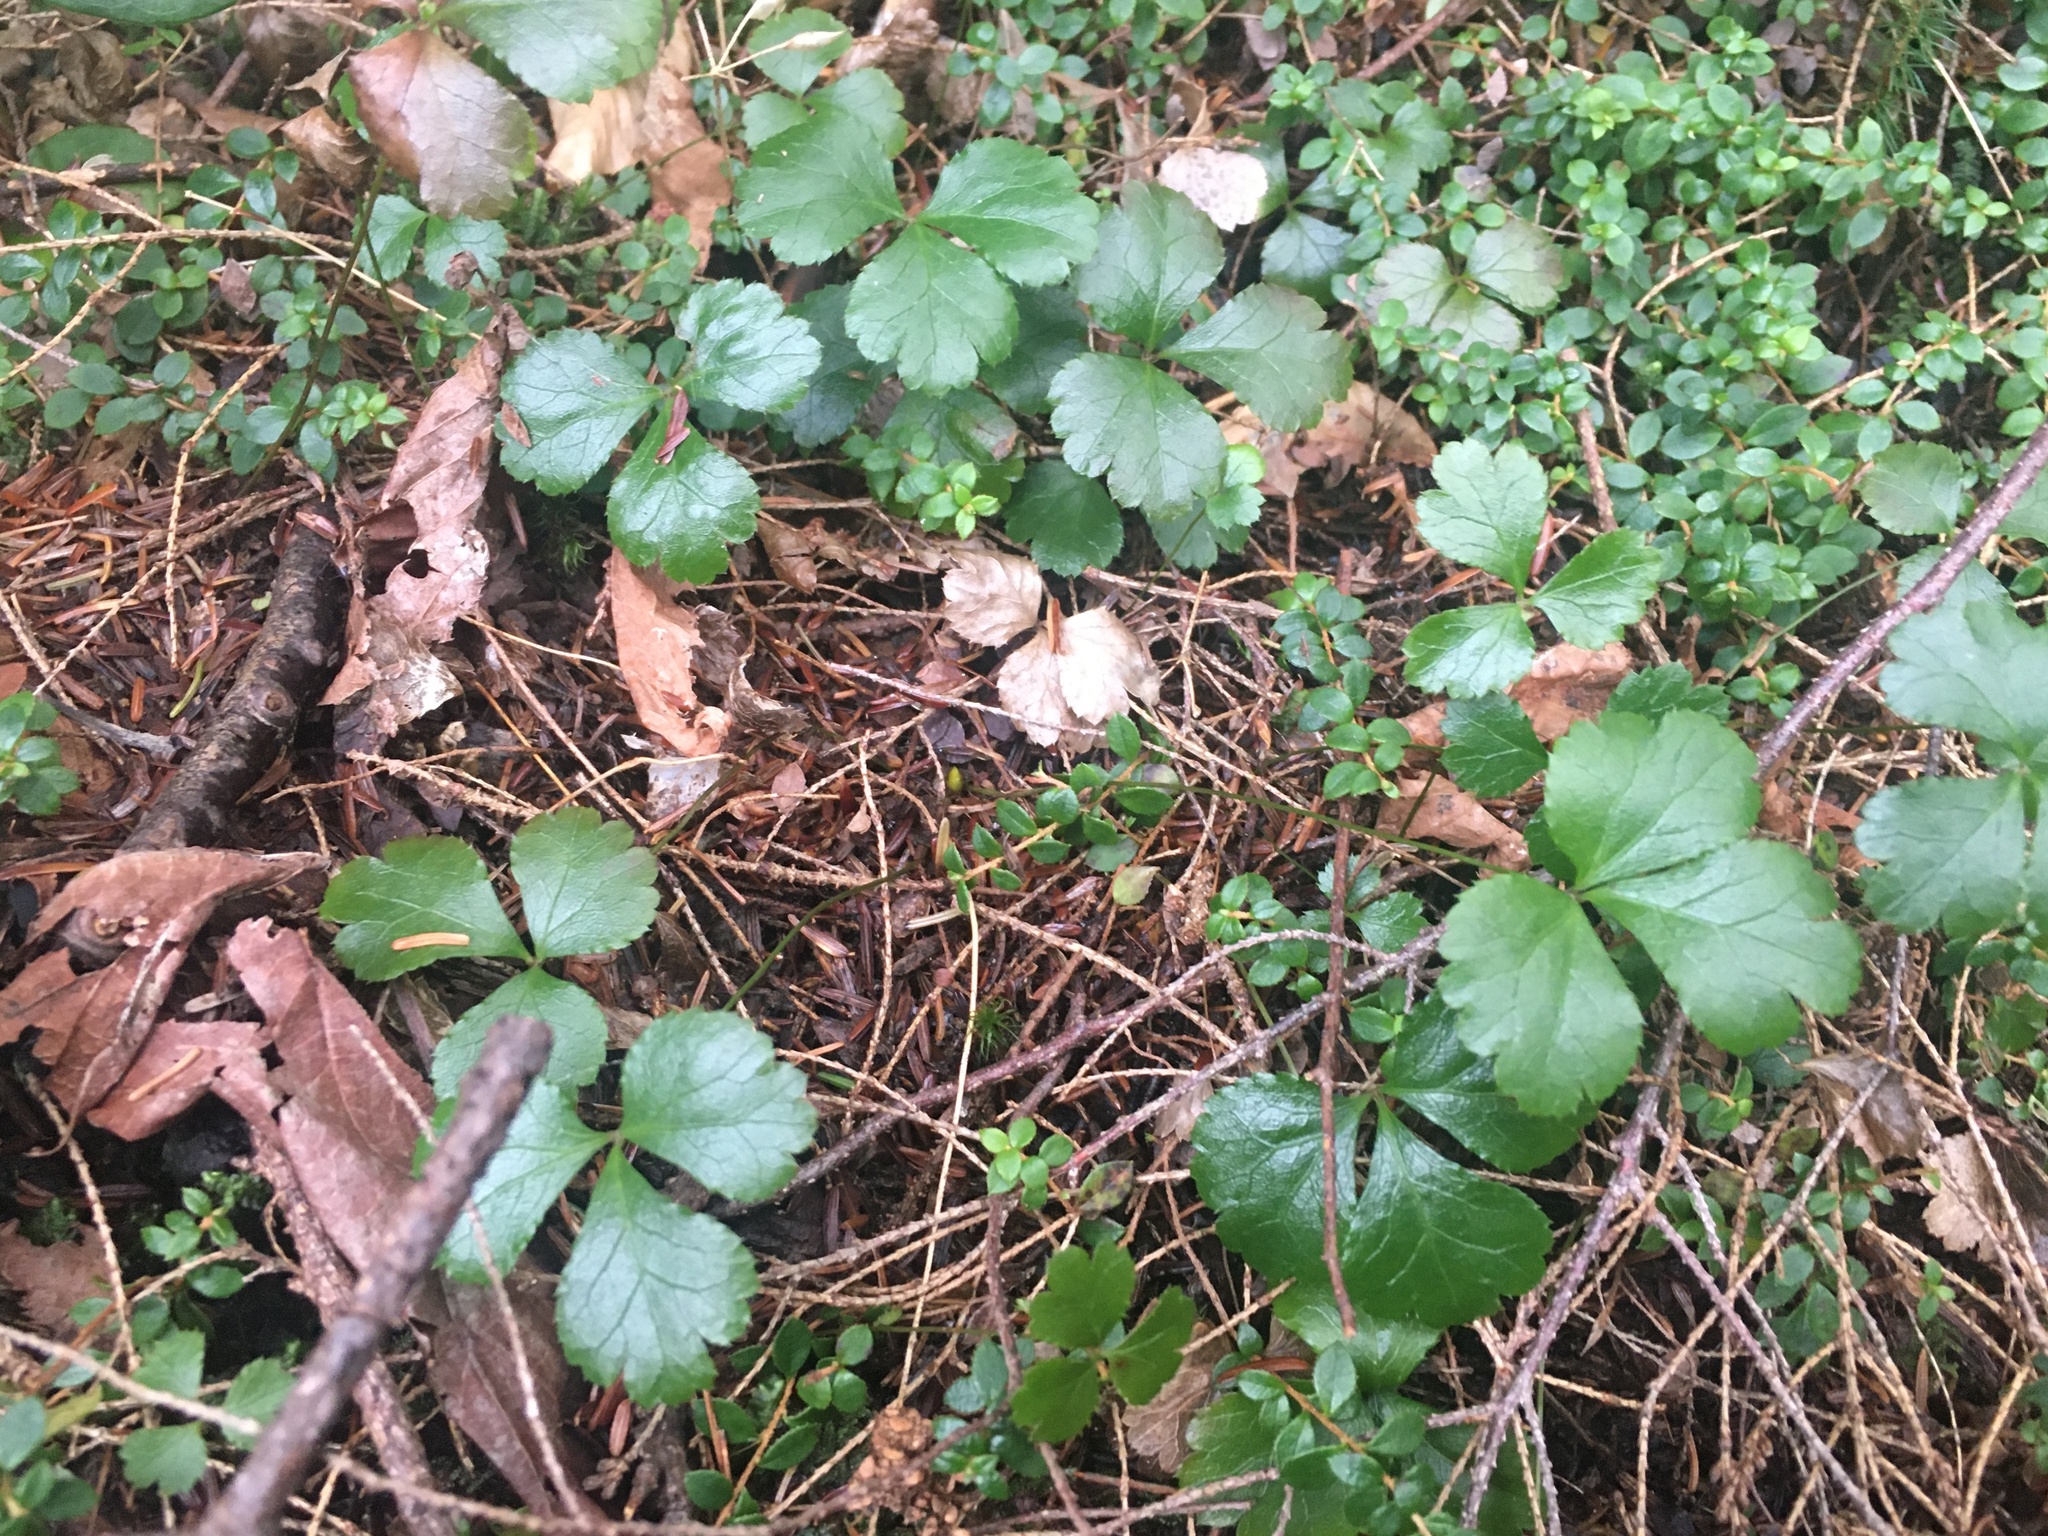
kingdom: Plantae
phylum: Tracheophyta
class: Magnoliopsida
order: Ranunculales
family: Ranunculaceae
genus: Coptis
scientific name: Coptis trifolia
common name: Canker-root
